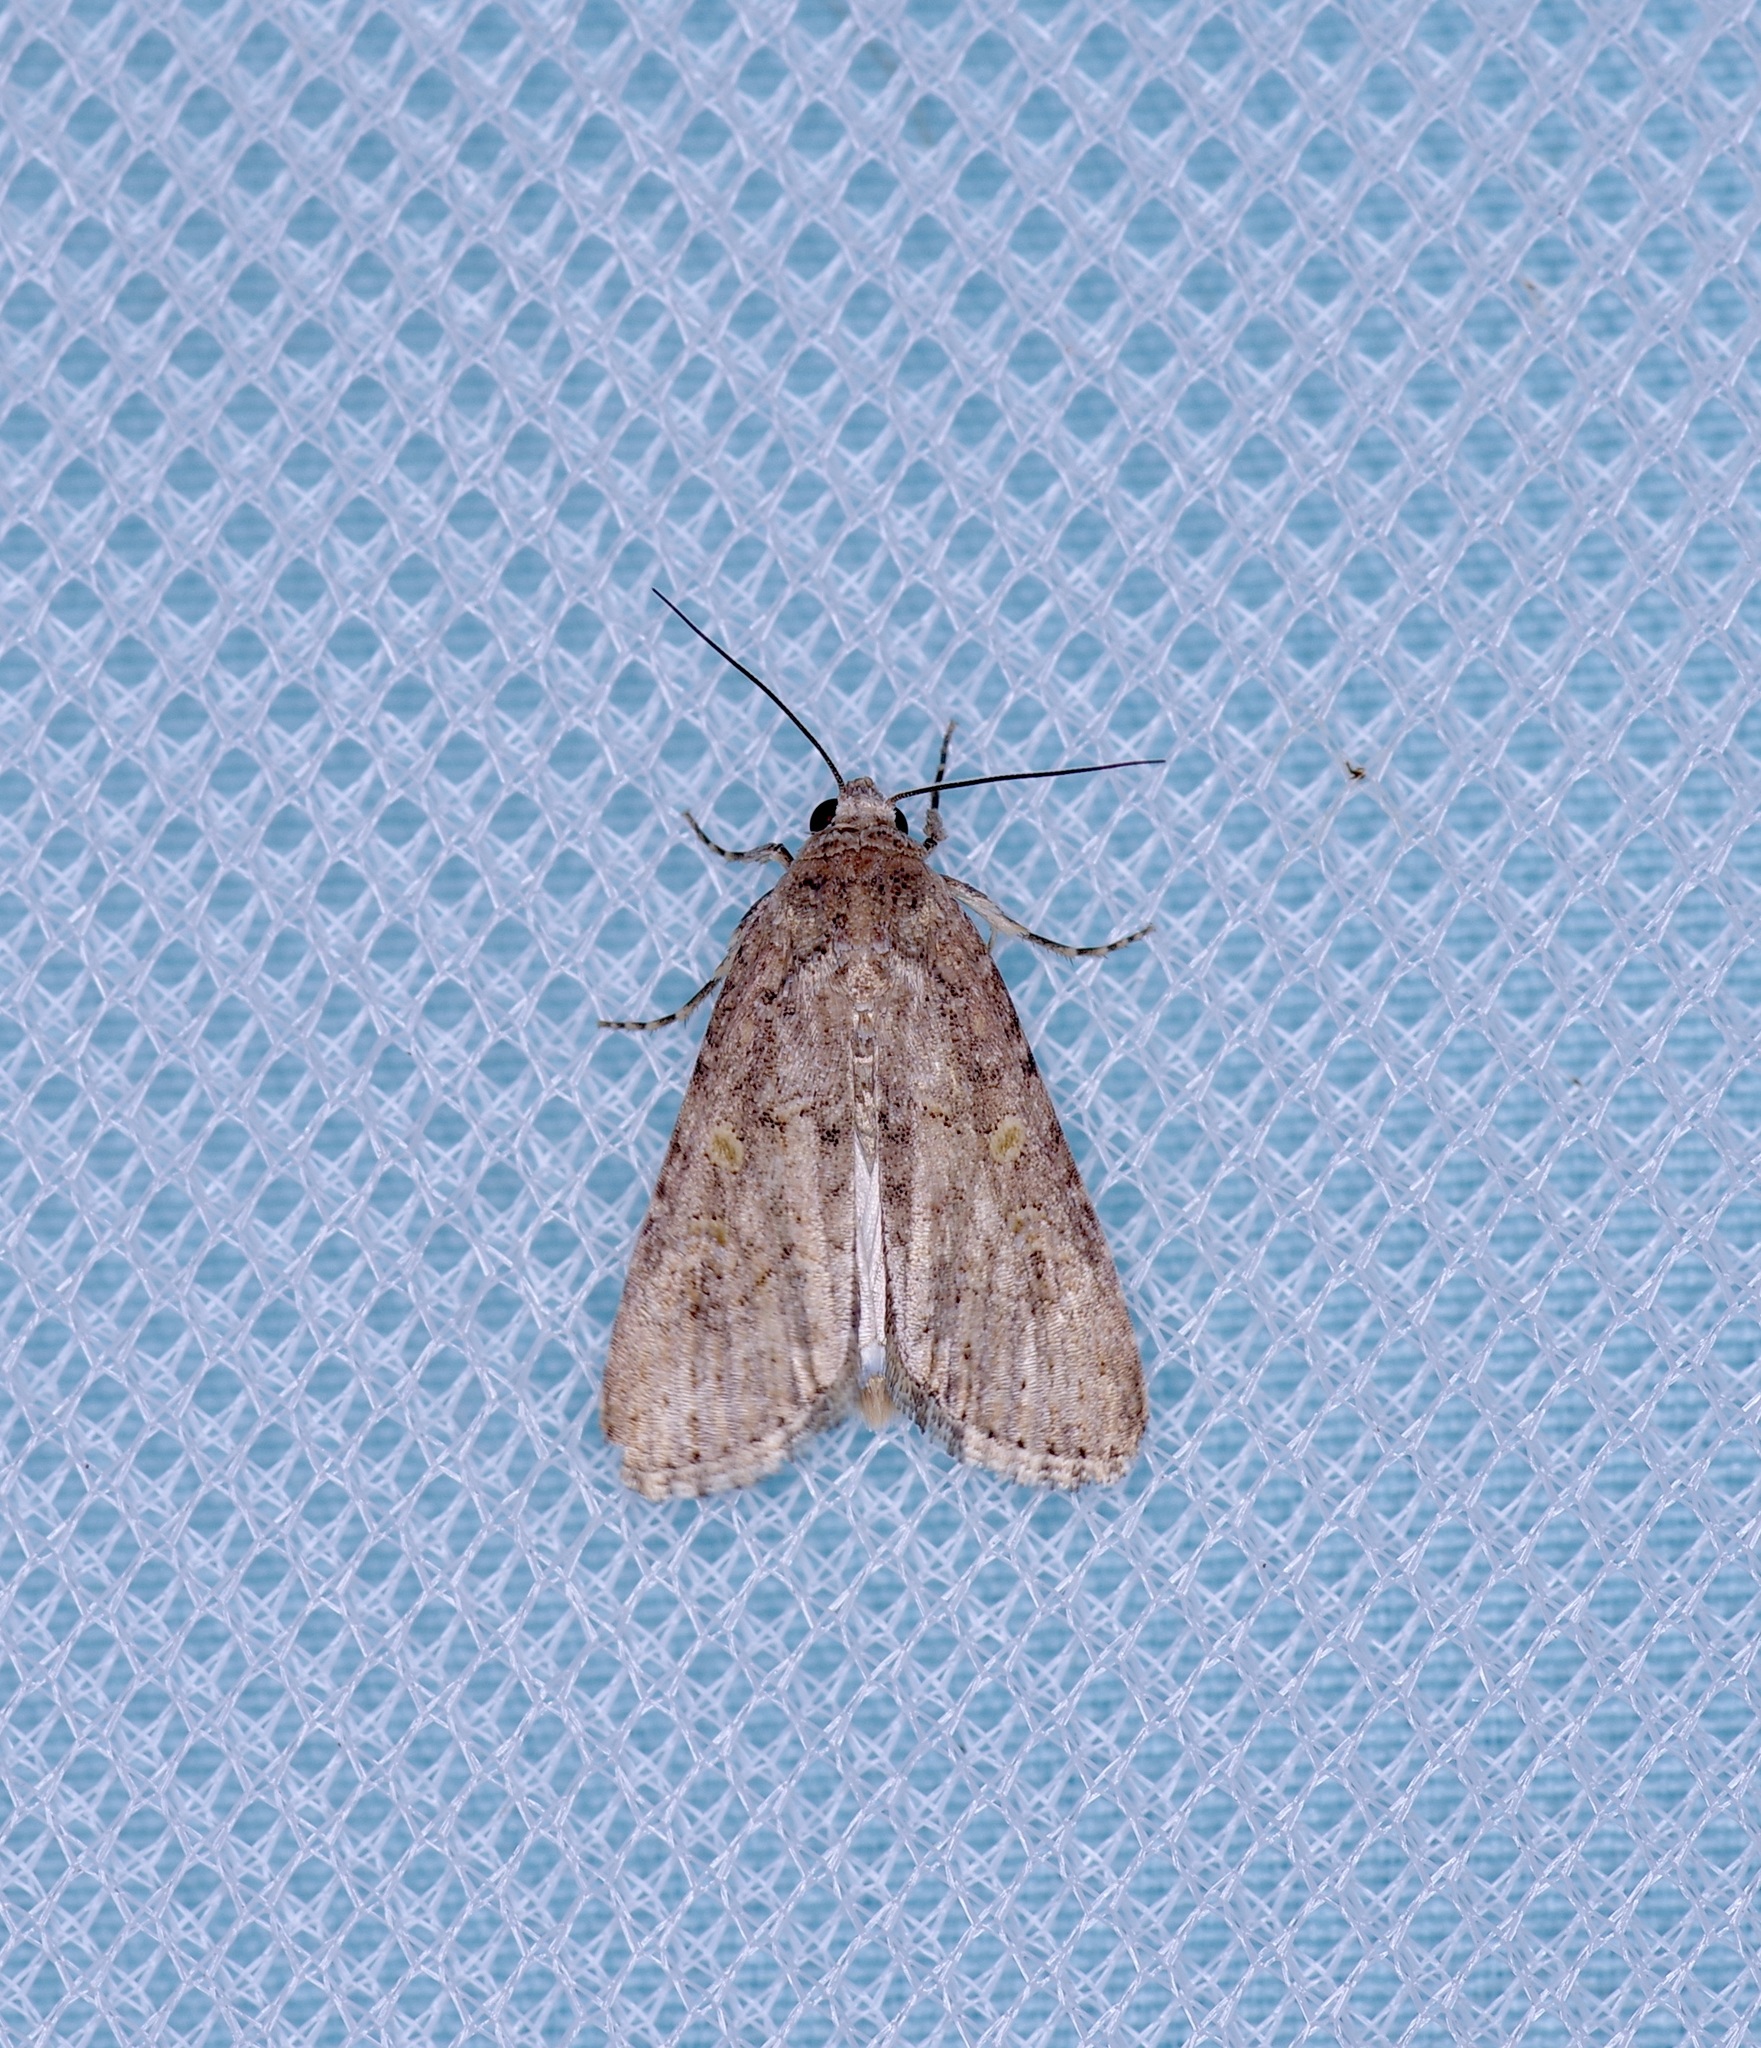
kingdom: Animalia
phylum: Arthropoda
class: Insecta
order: Lepidoptera
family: Noctuidae
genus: Spodoptera
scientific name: Spodoptera frugiperda
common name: Fall armyworm
